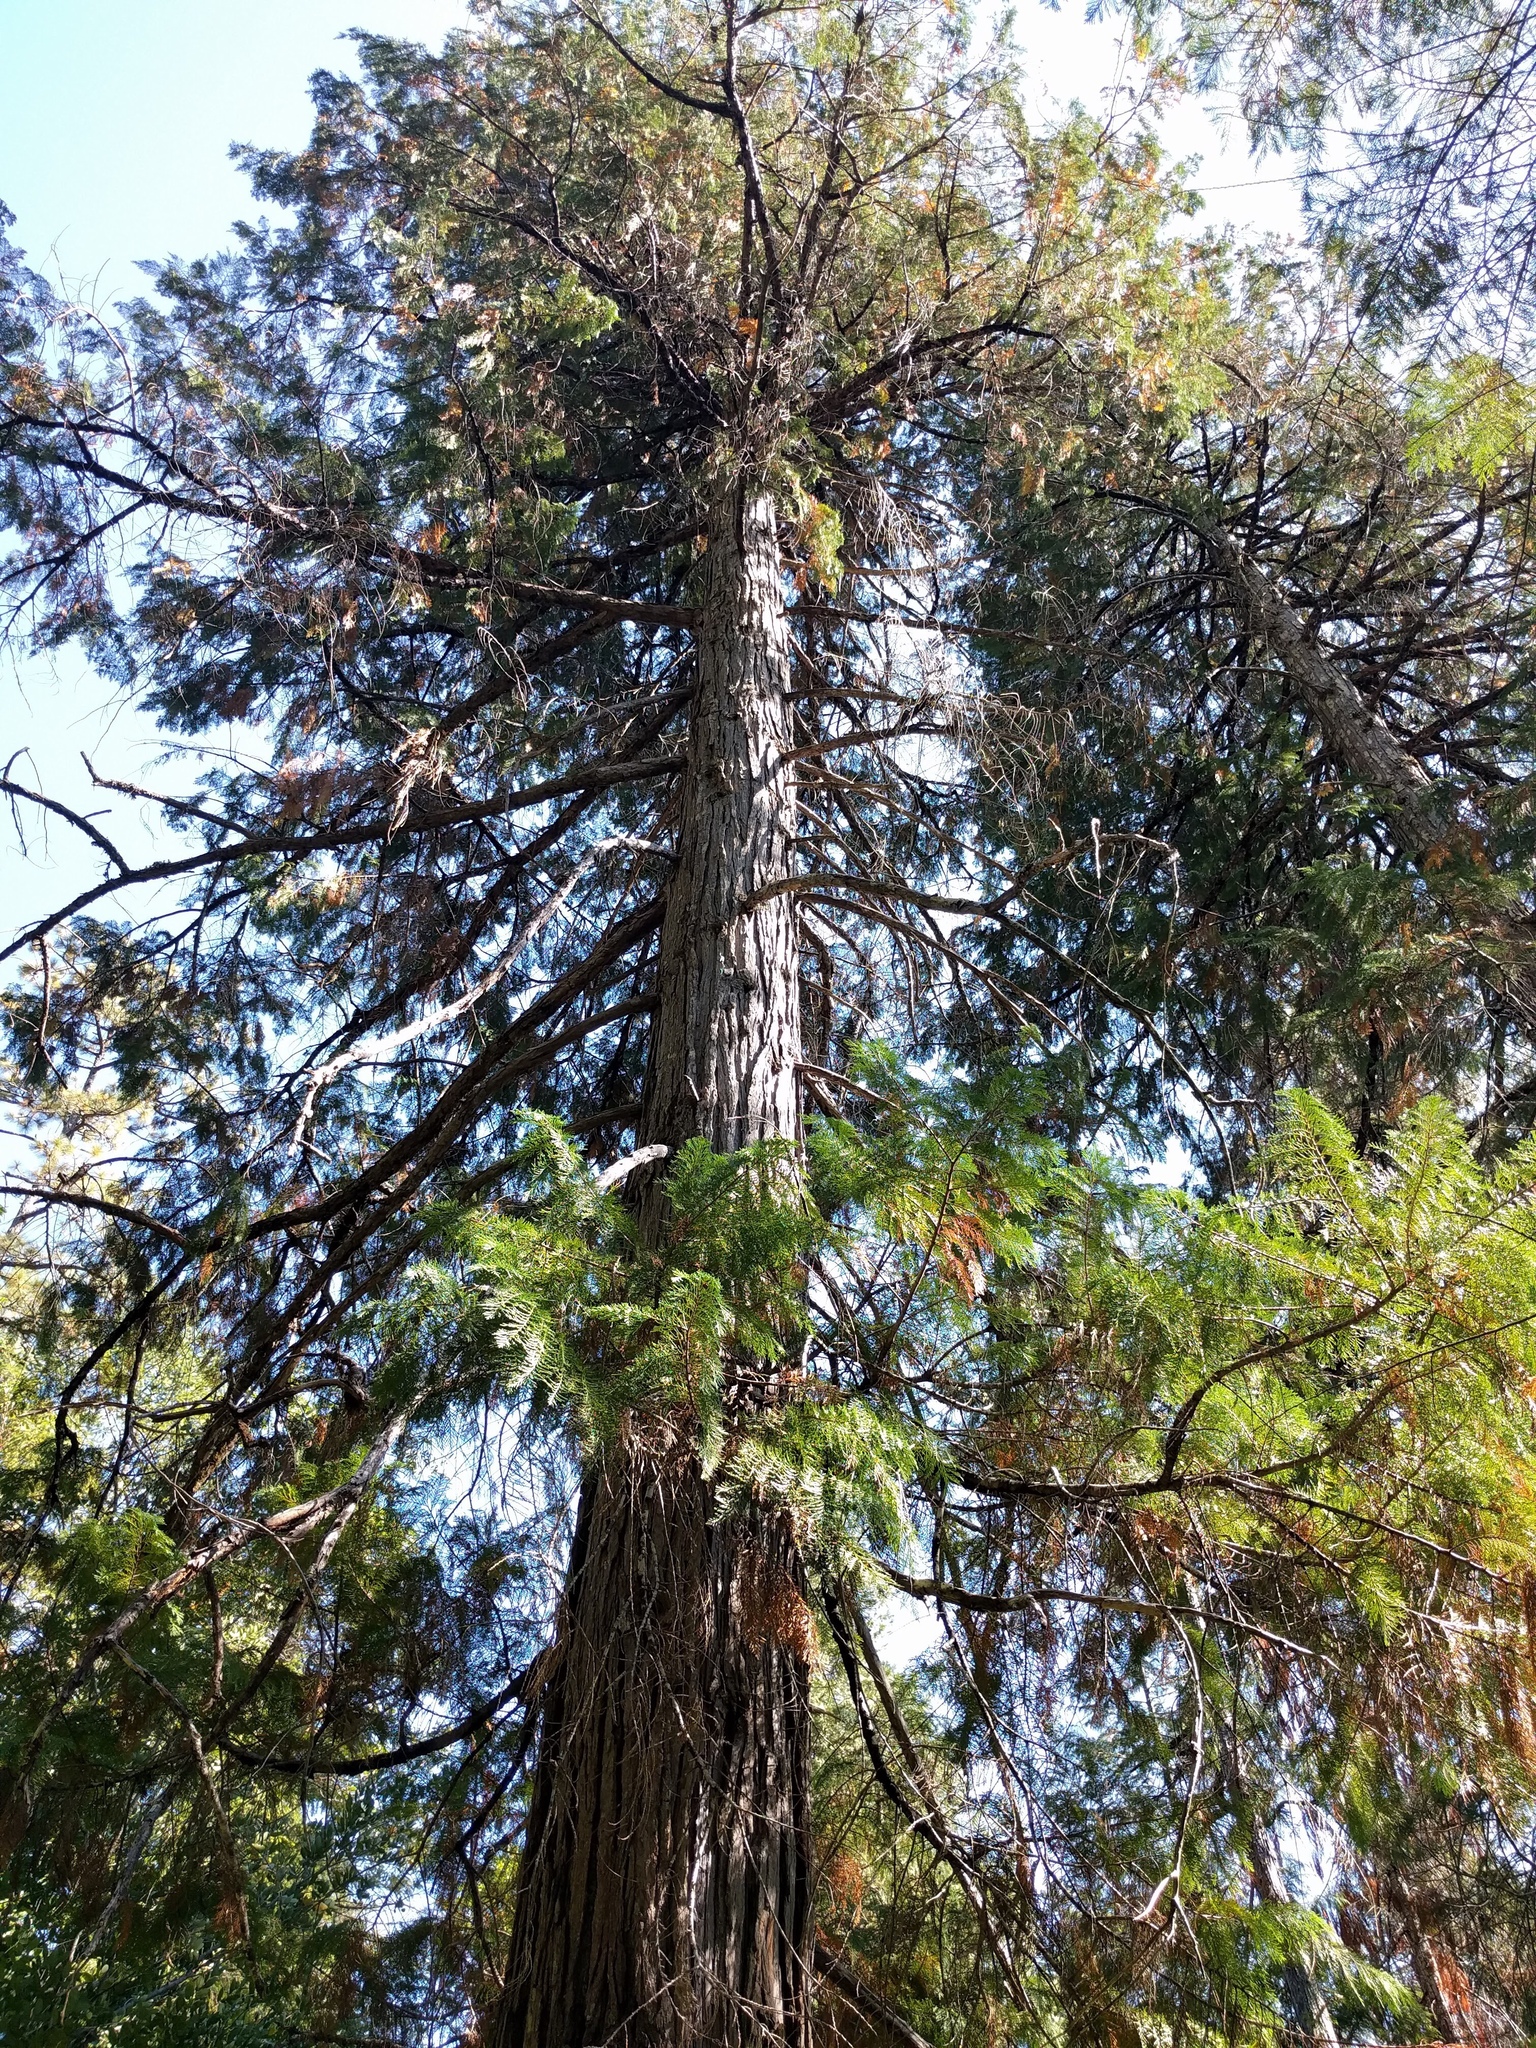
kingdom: Plantae
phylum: Tracheophyta
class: Pinopsida
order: Pinales
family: Cupressaceae
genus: Chamaecyparis
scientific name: Chamaecyparis lawsoniana
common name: Lawson's cypress
